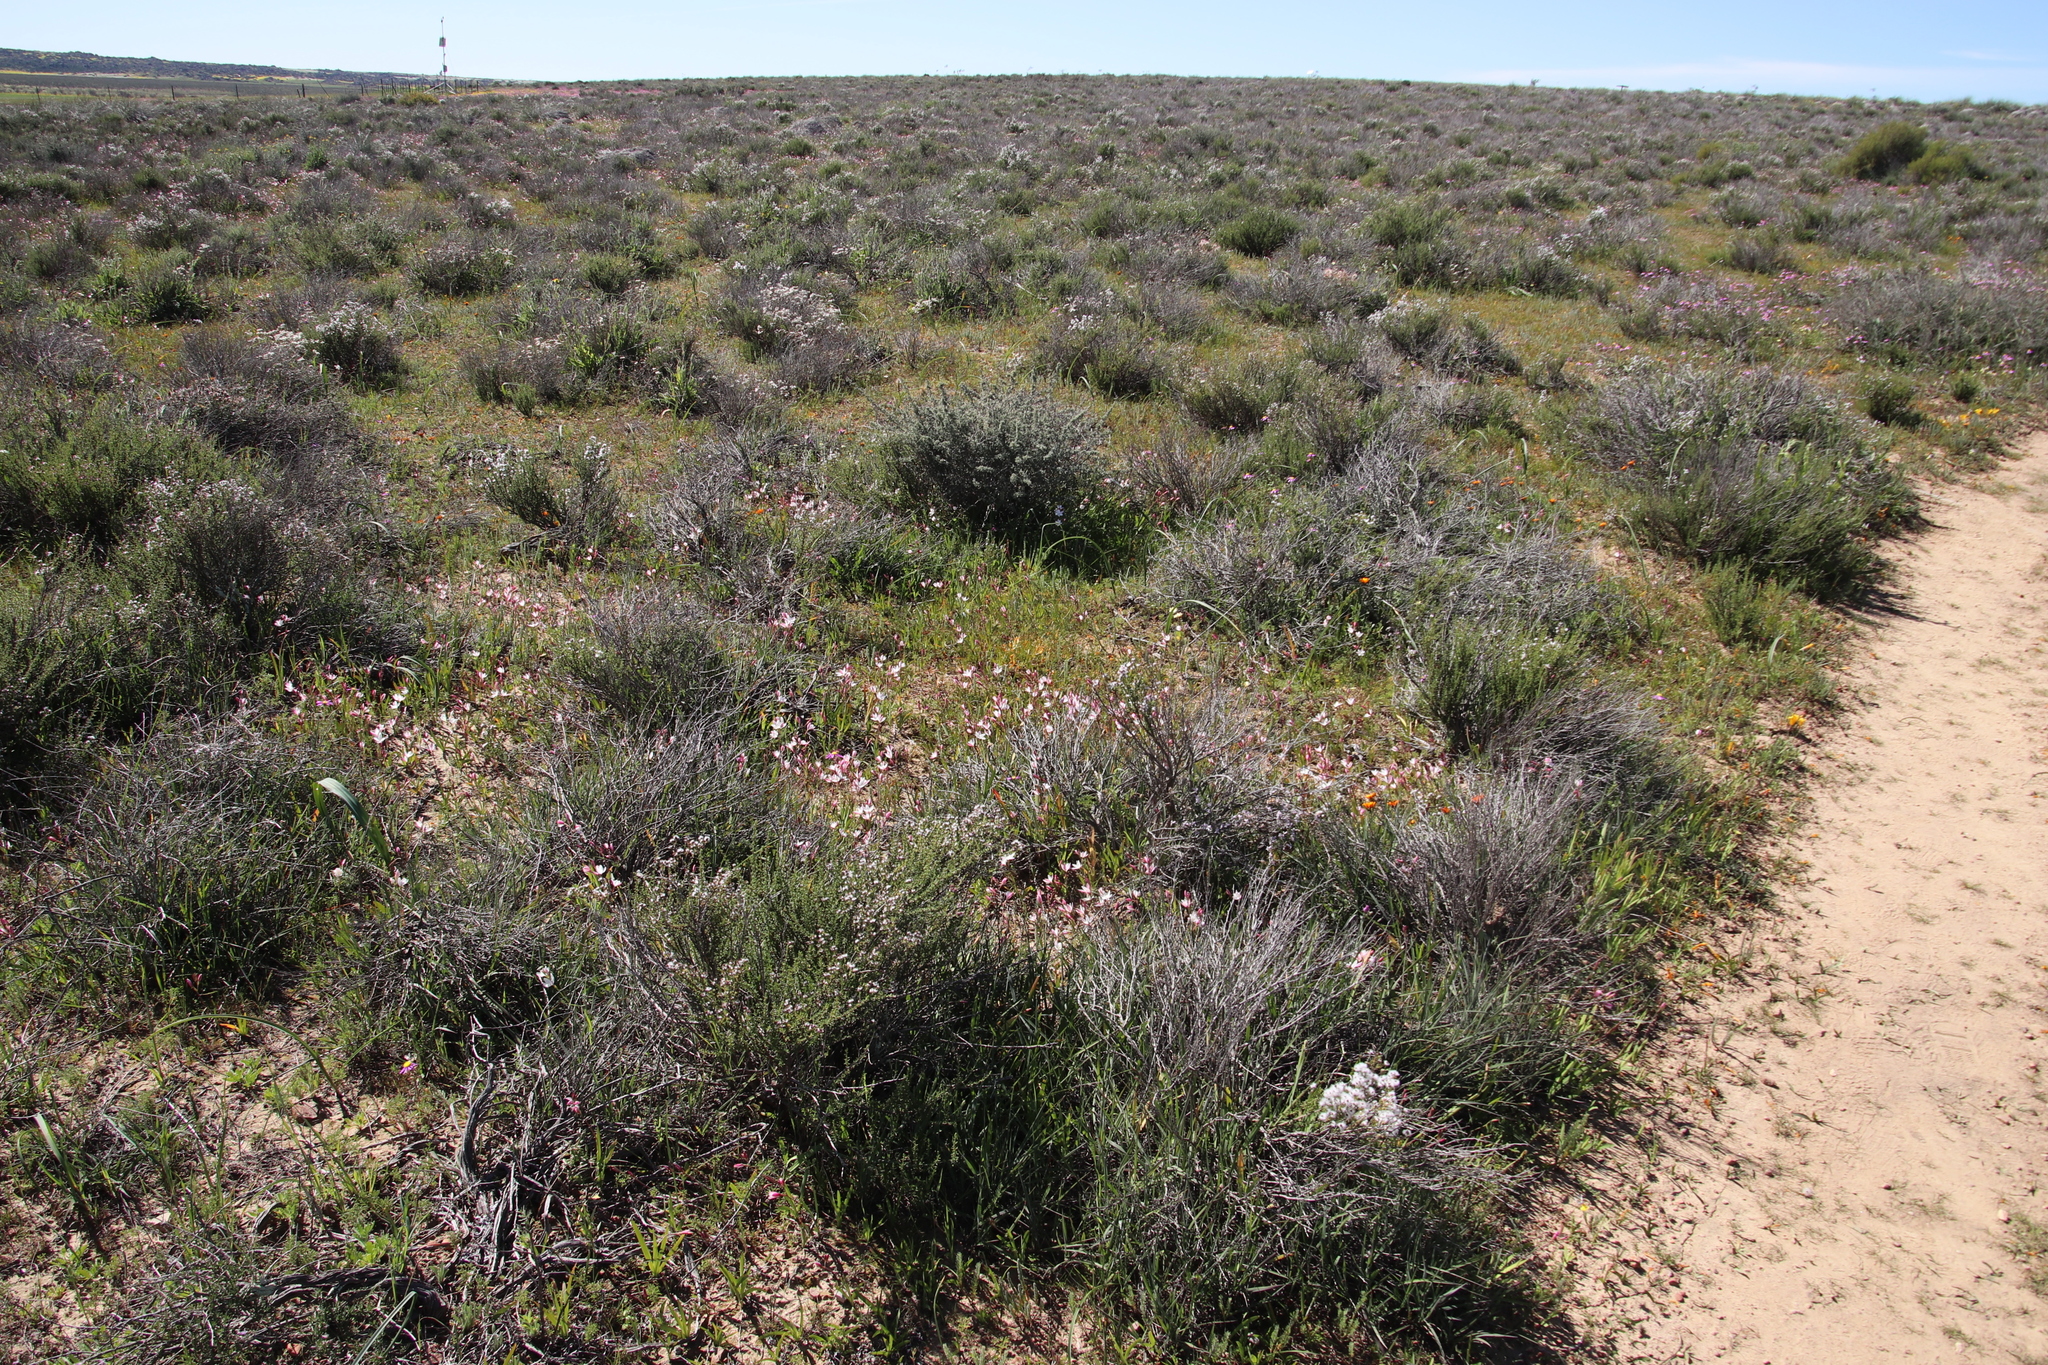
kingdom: Plantae
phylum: Tracheophyta
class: Liliopsida
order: Asparagales
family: Iridaceae
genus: Hesperantha
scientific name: Hesperantha cucullata
